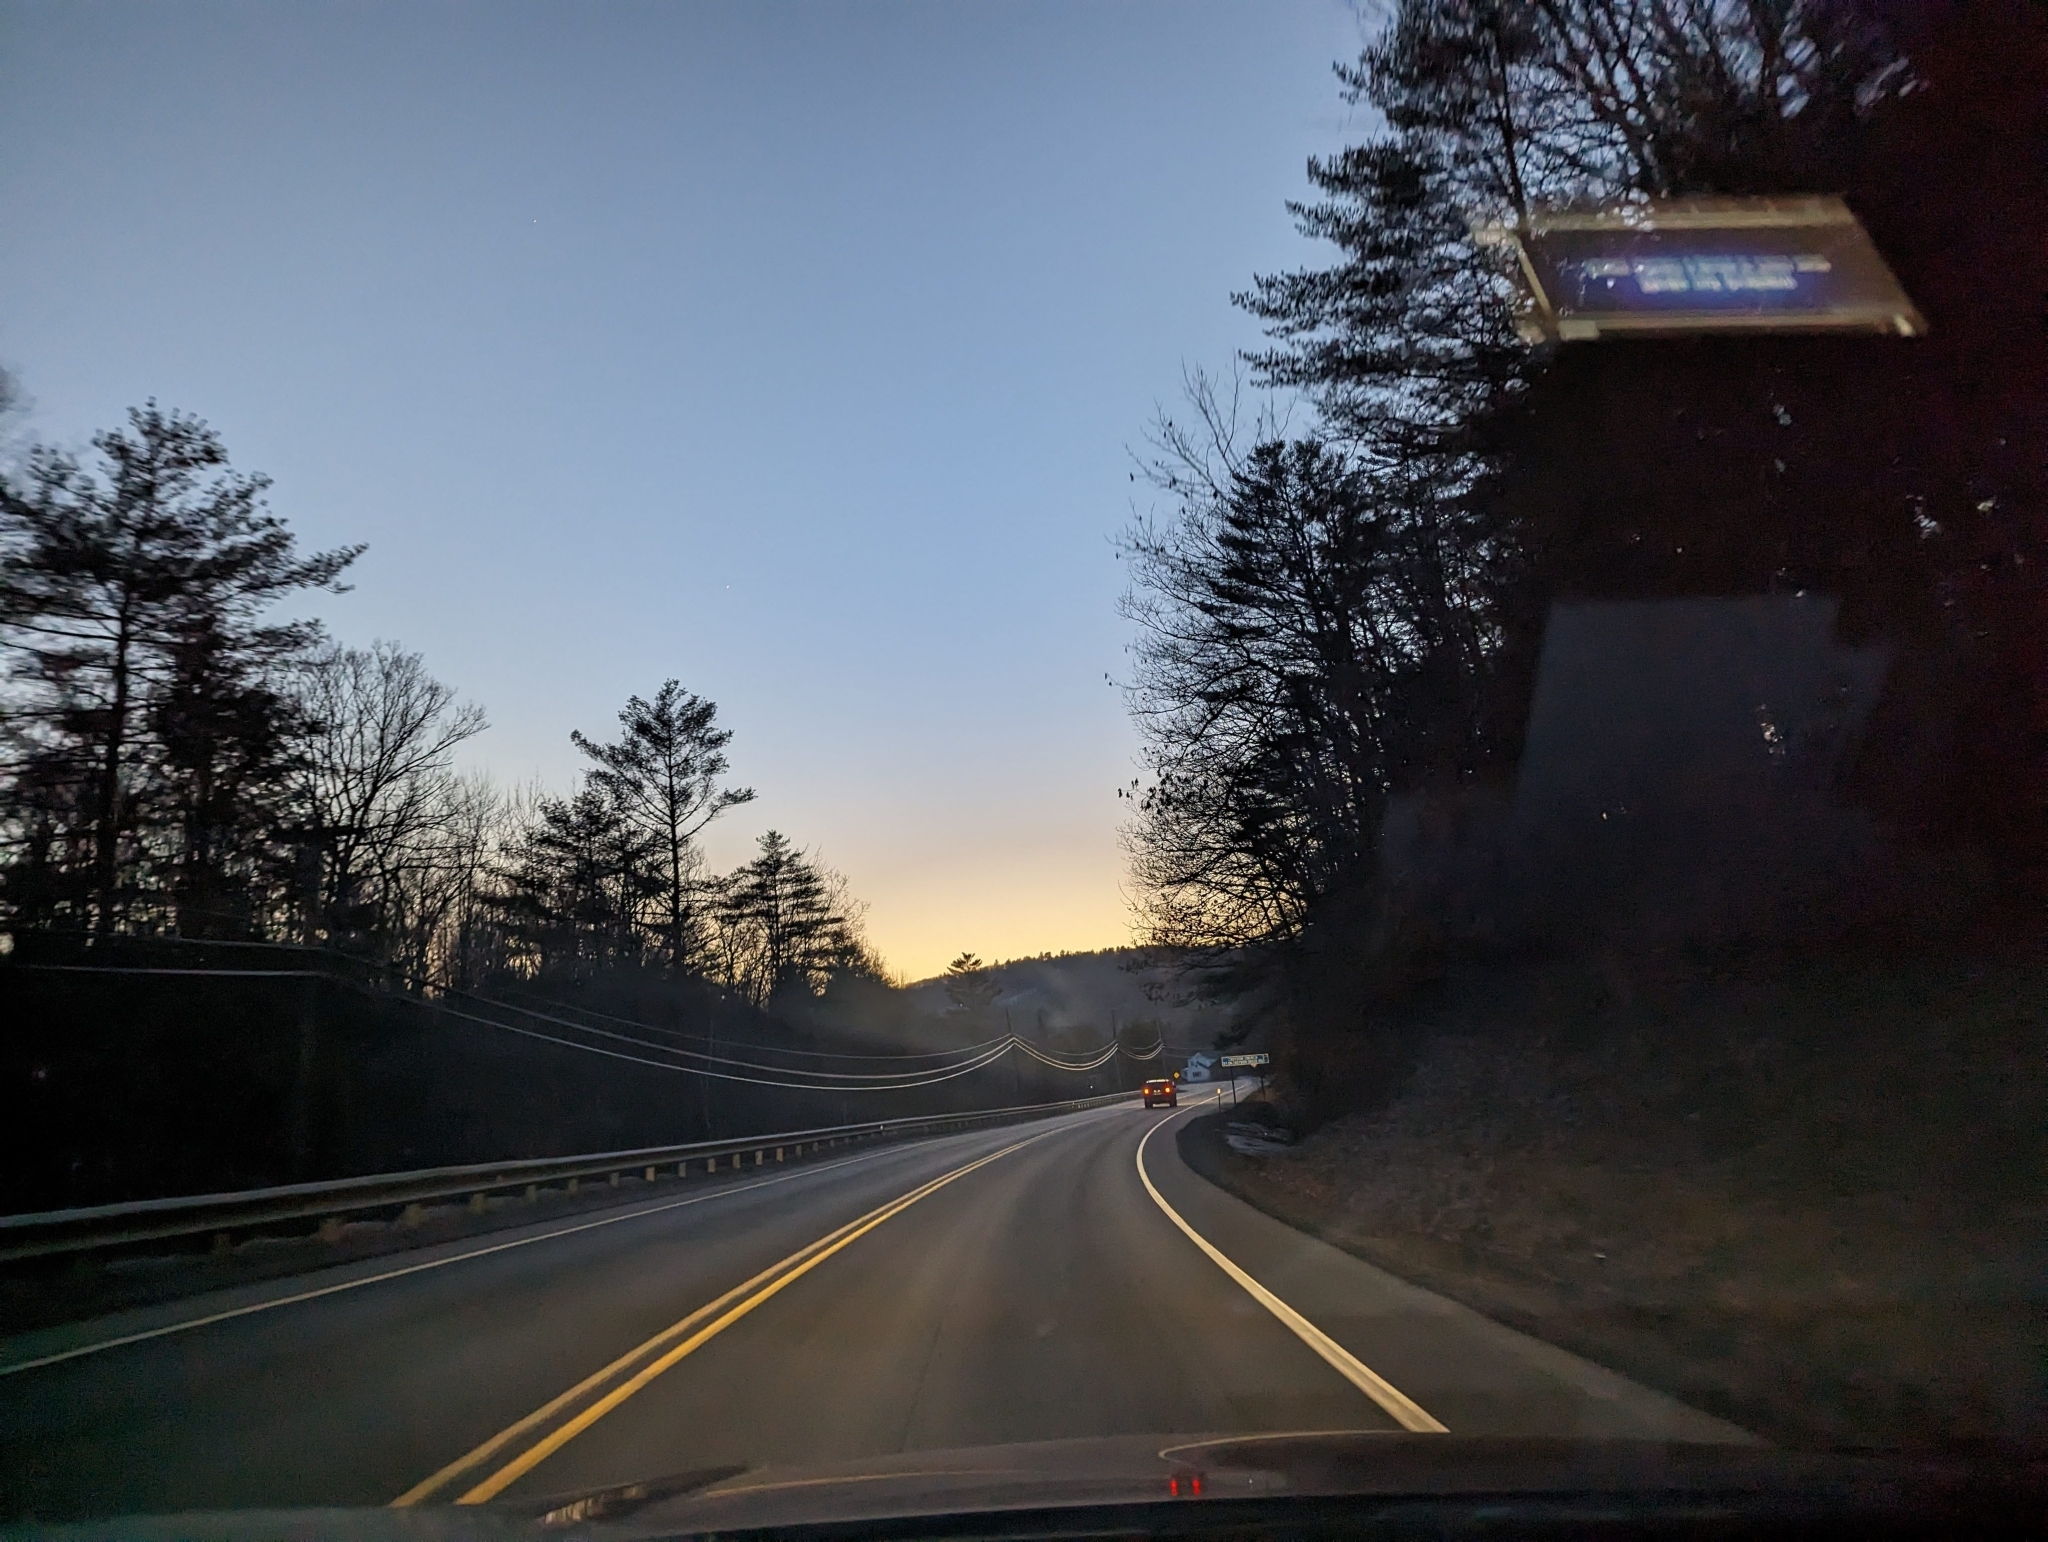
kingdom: Plantae
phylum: Tracheophyta
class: Pinopsida
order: Pinales
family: Pinaceae
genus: Pinus
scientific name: Pinus strobus
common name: Weymouth pine
